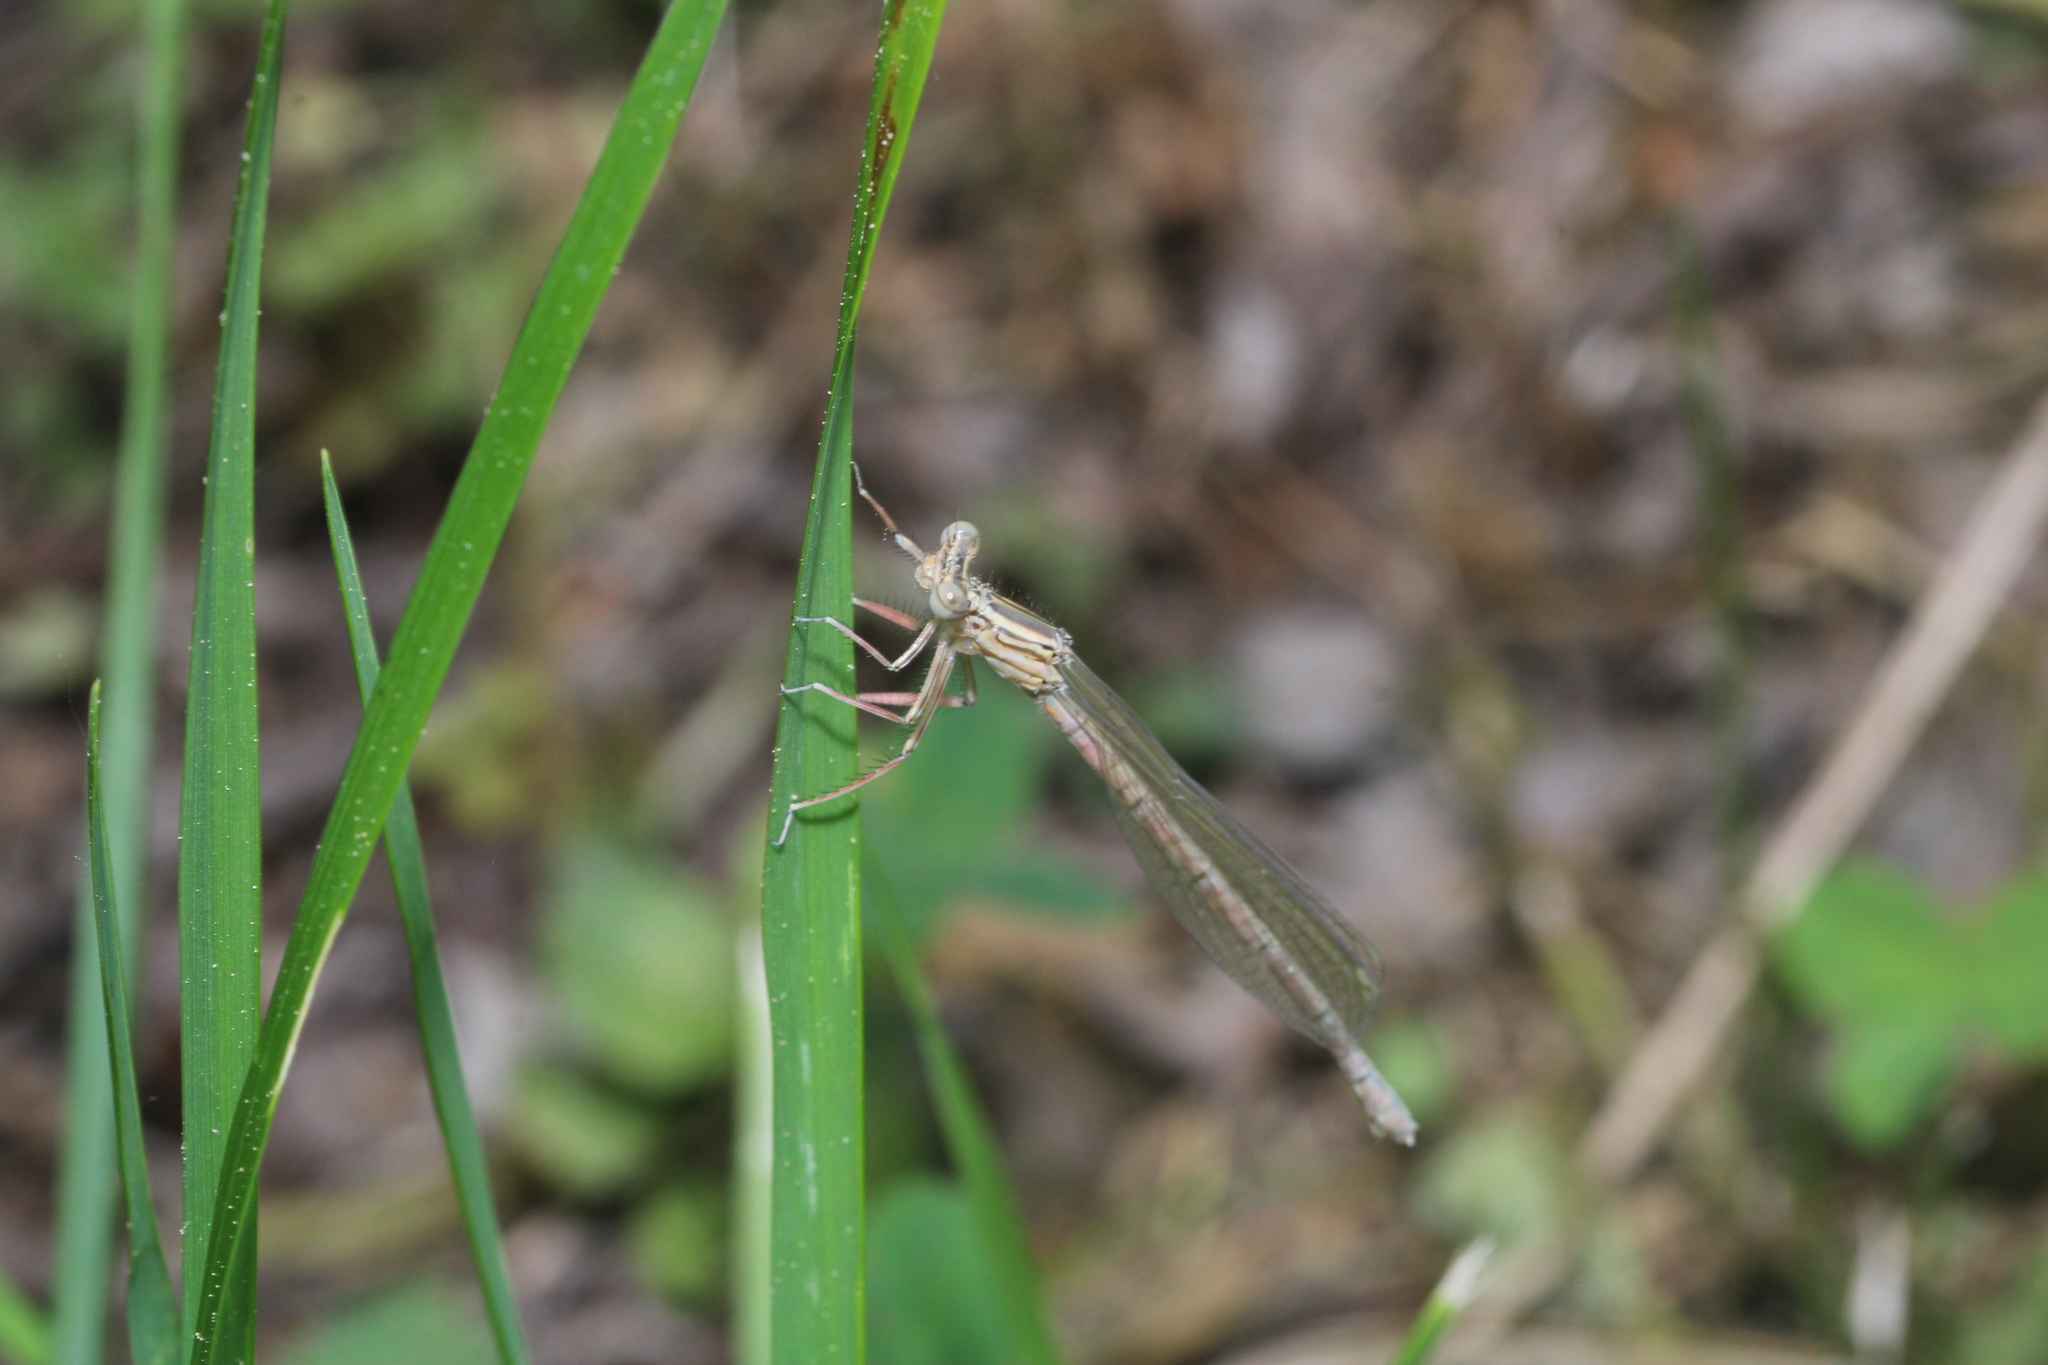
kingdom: Animalia
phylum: Arthropoda
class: Insecta
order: Odonata
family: Platycnemididae
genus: Platycnemis
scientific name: Platycnemis pennipes
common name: White-legged damselfly
